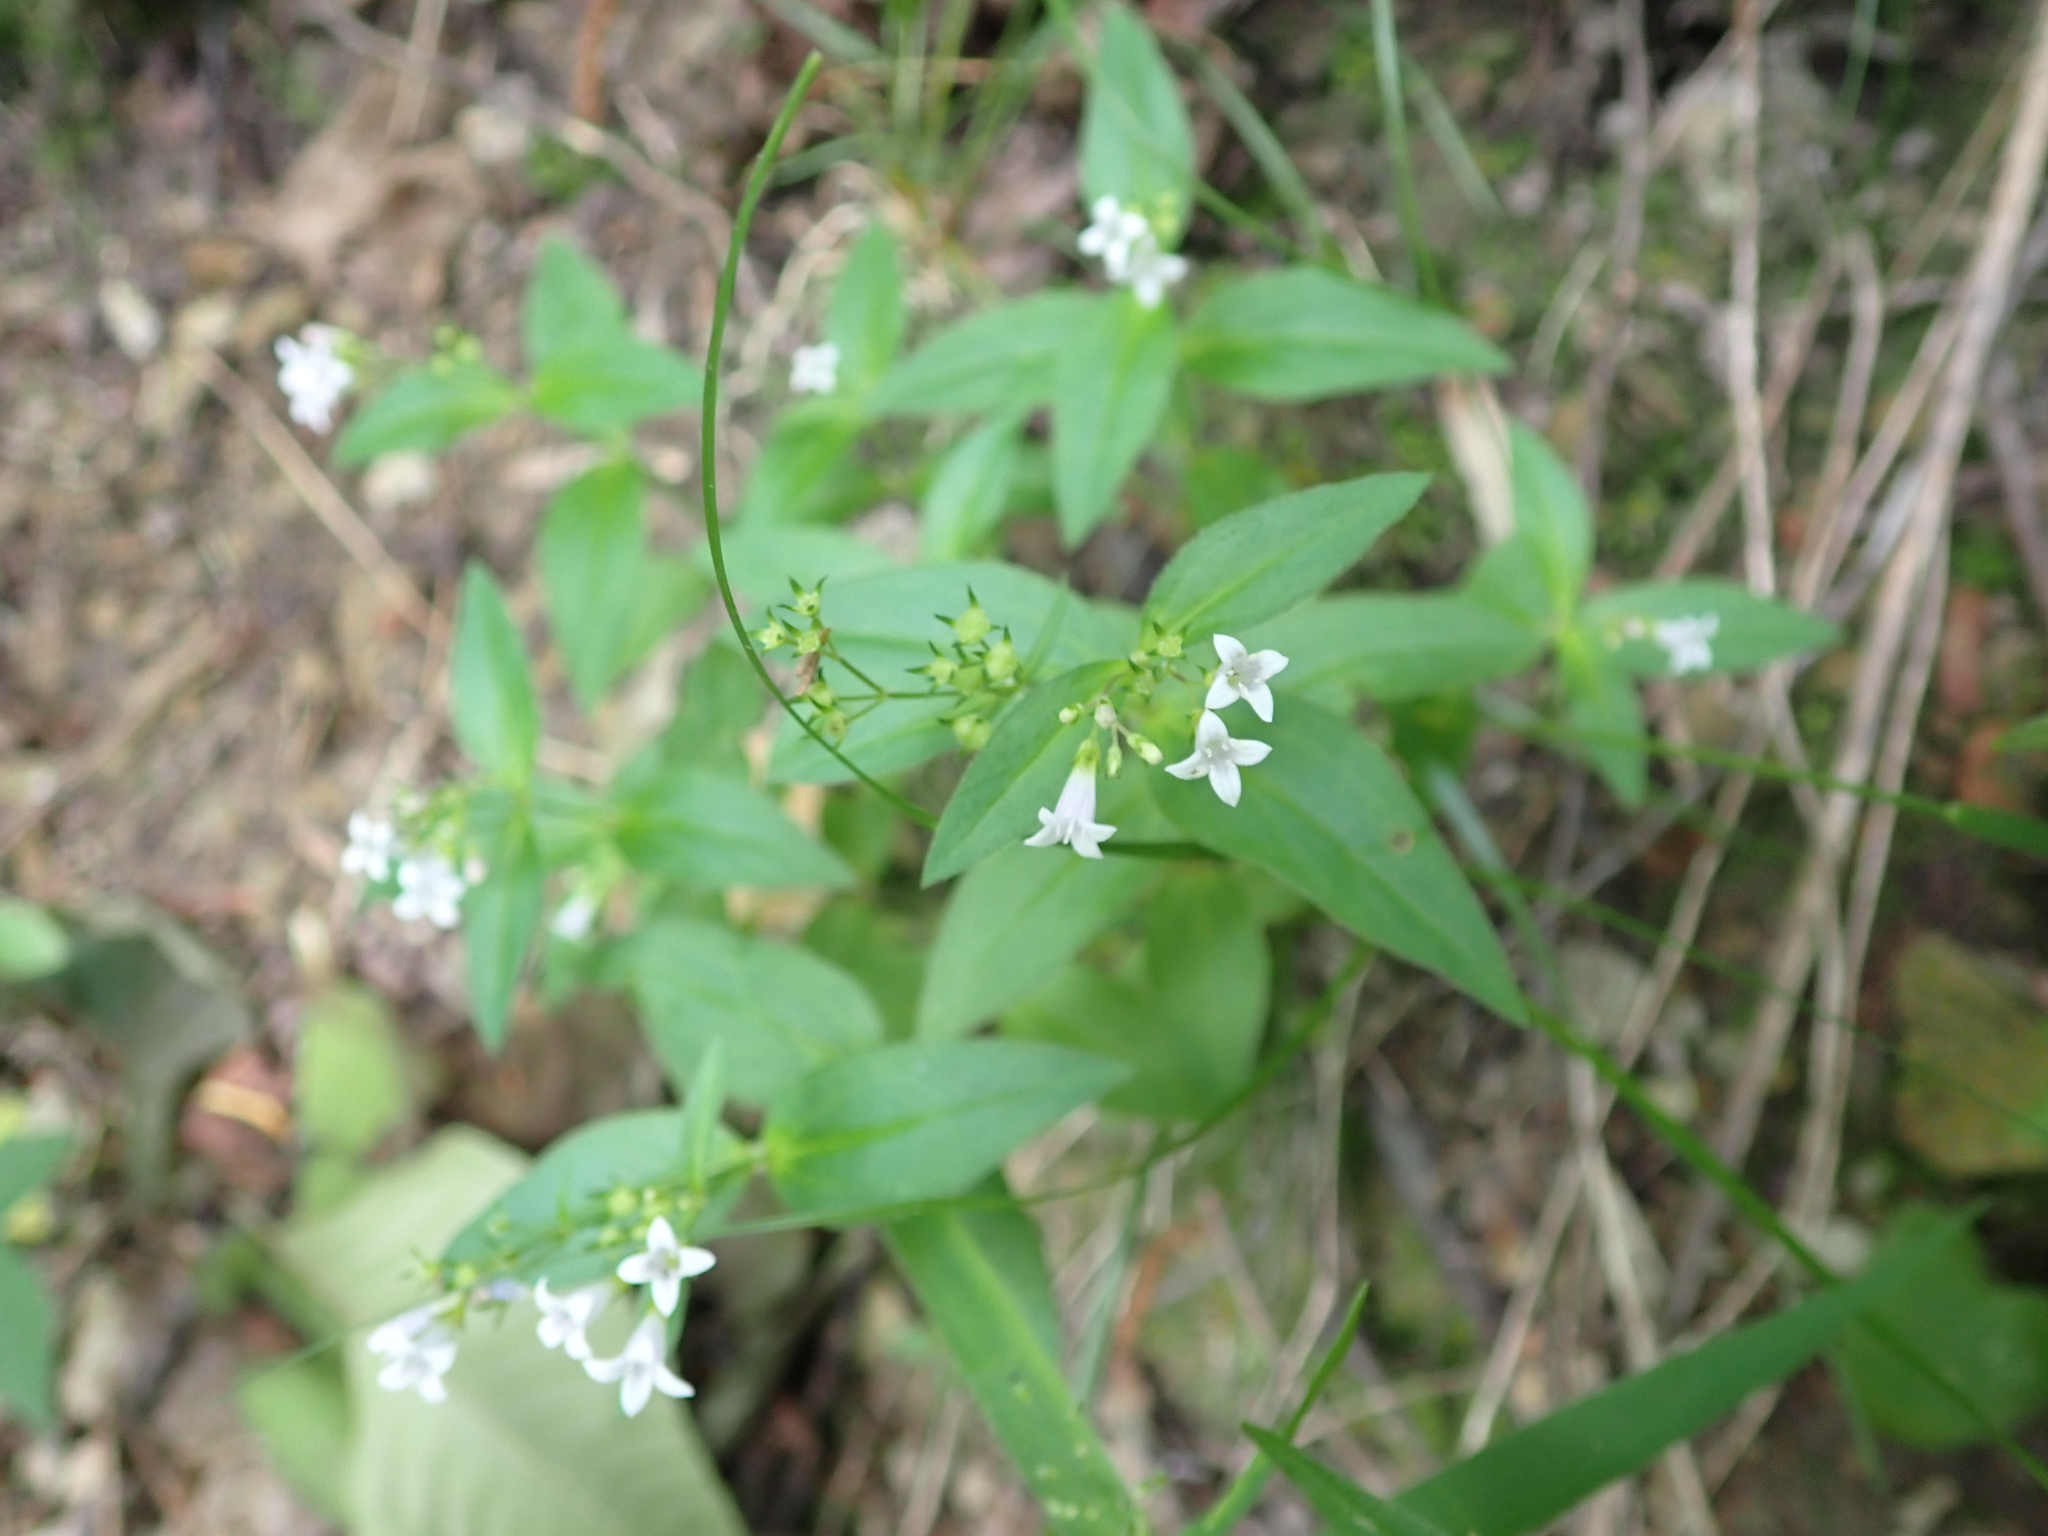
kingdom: Plantae
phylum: Tracheophyta
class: Magnoliopsida
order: Gentianales
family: Rubiaceae
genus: Houstonia
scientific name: Houstonia purpurea
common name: Summer bluet
